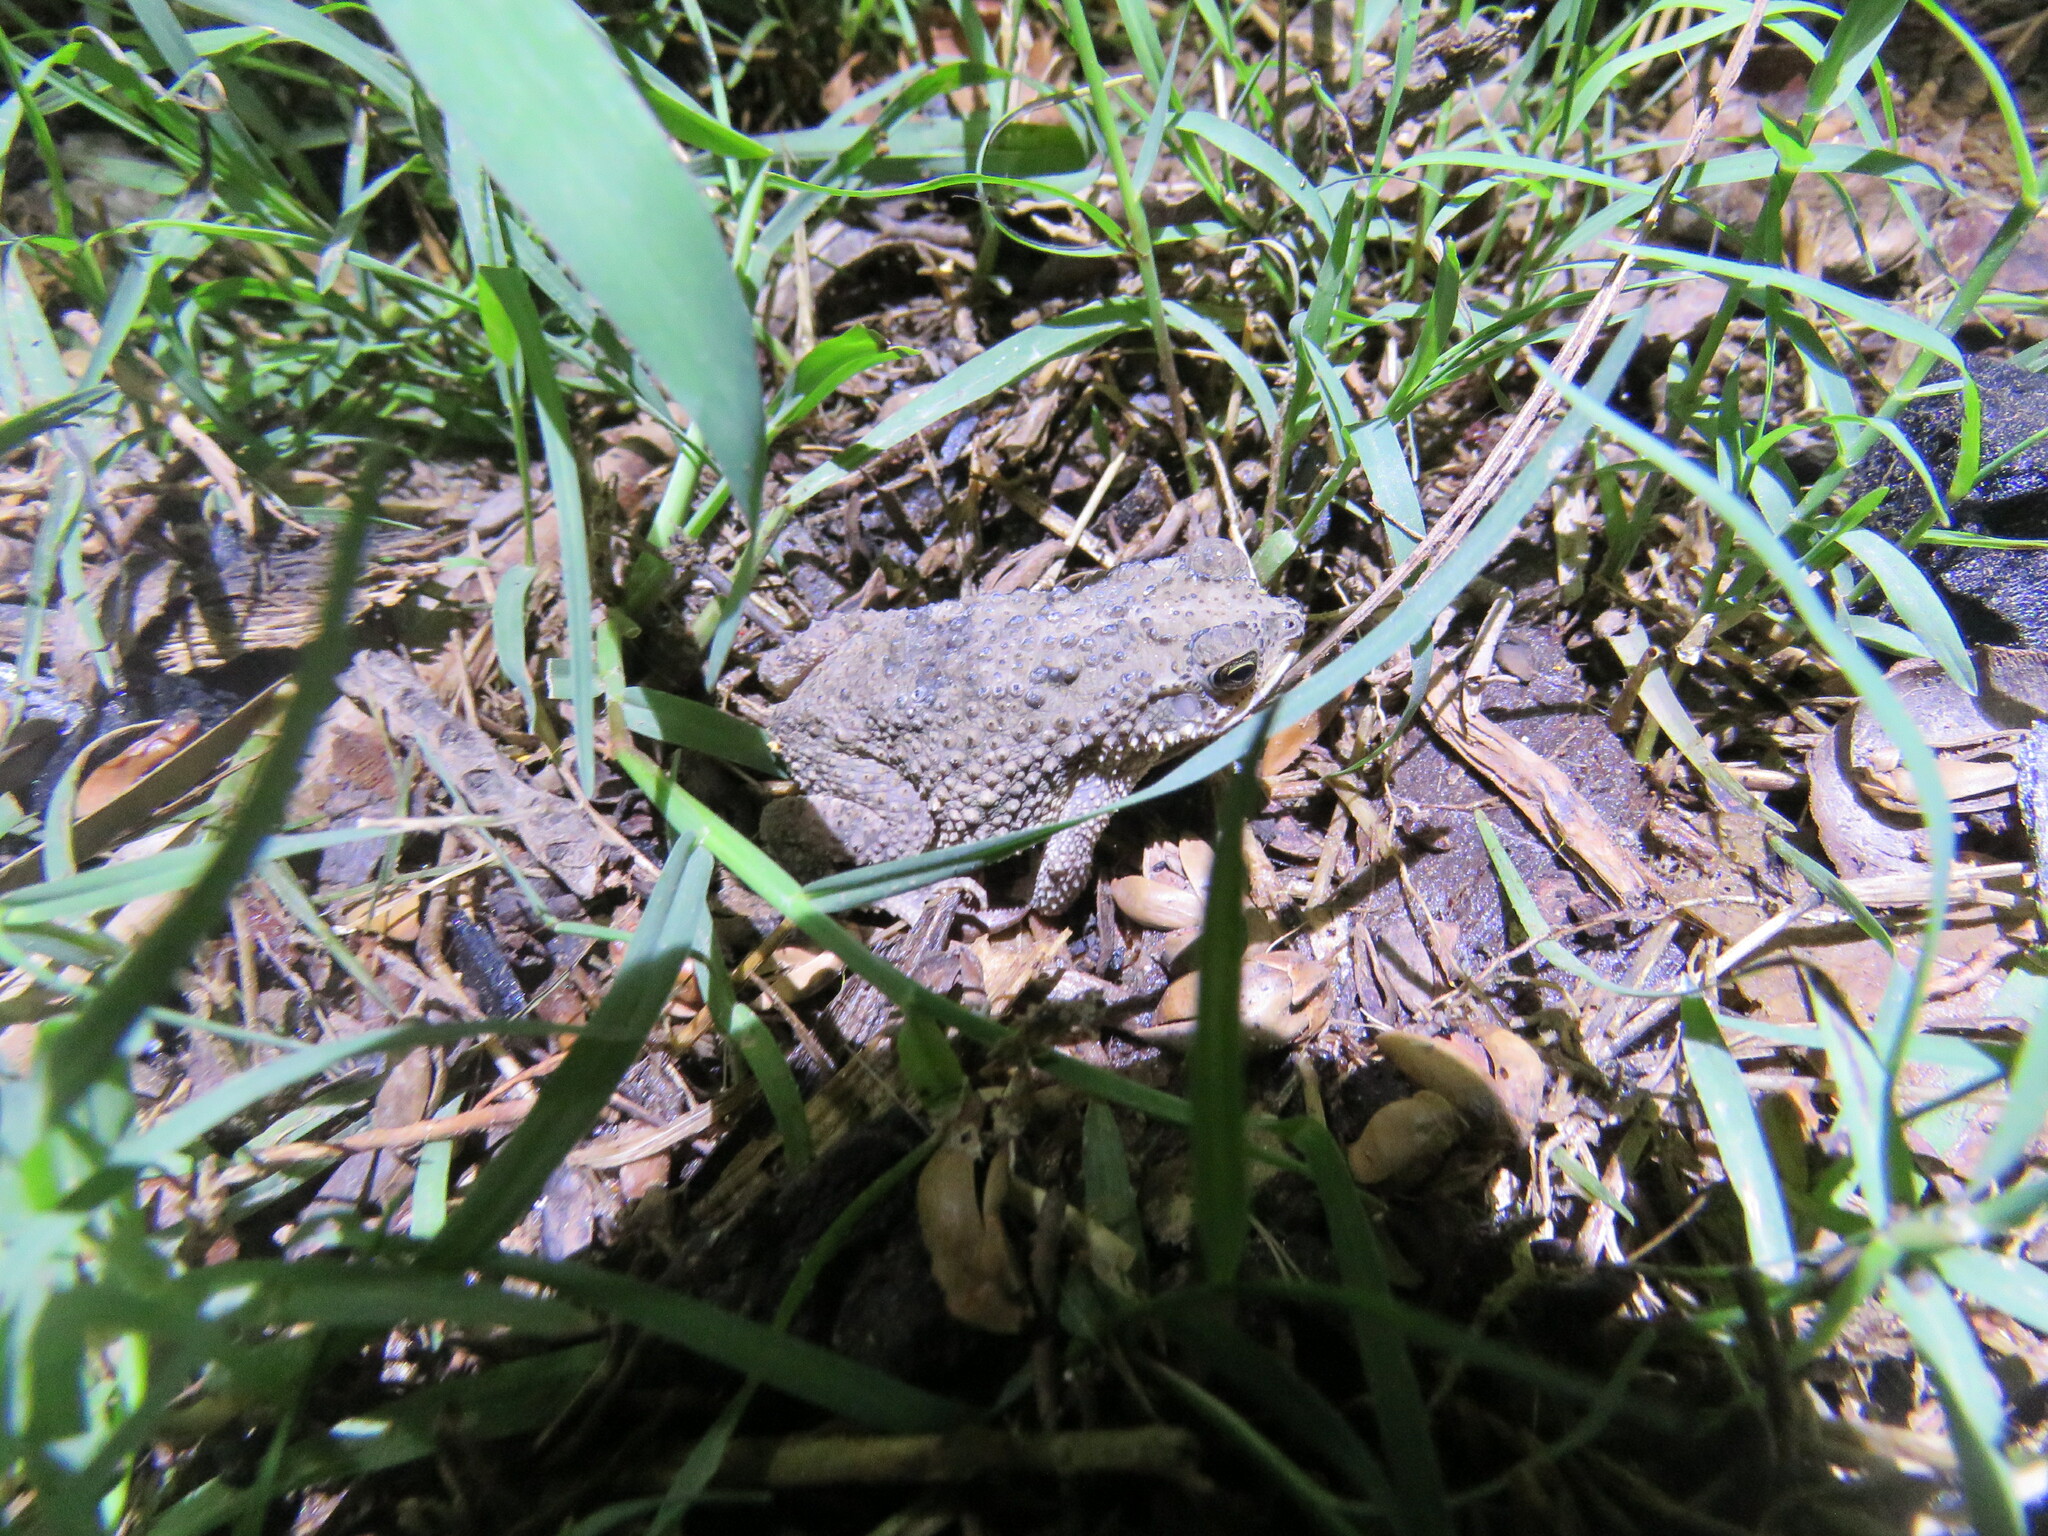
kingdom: Animalia
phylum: Chordata
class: Amphibia
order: Anura
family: Bufonidae
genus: Rhinella
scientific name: Rhinella major
